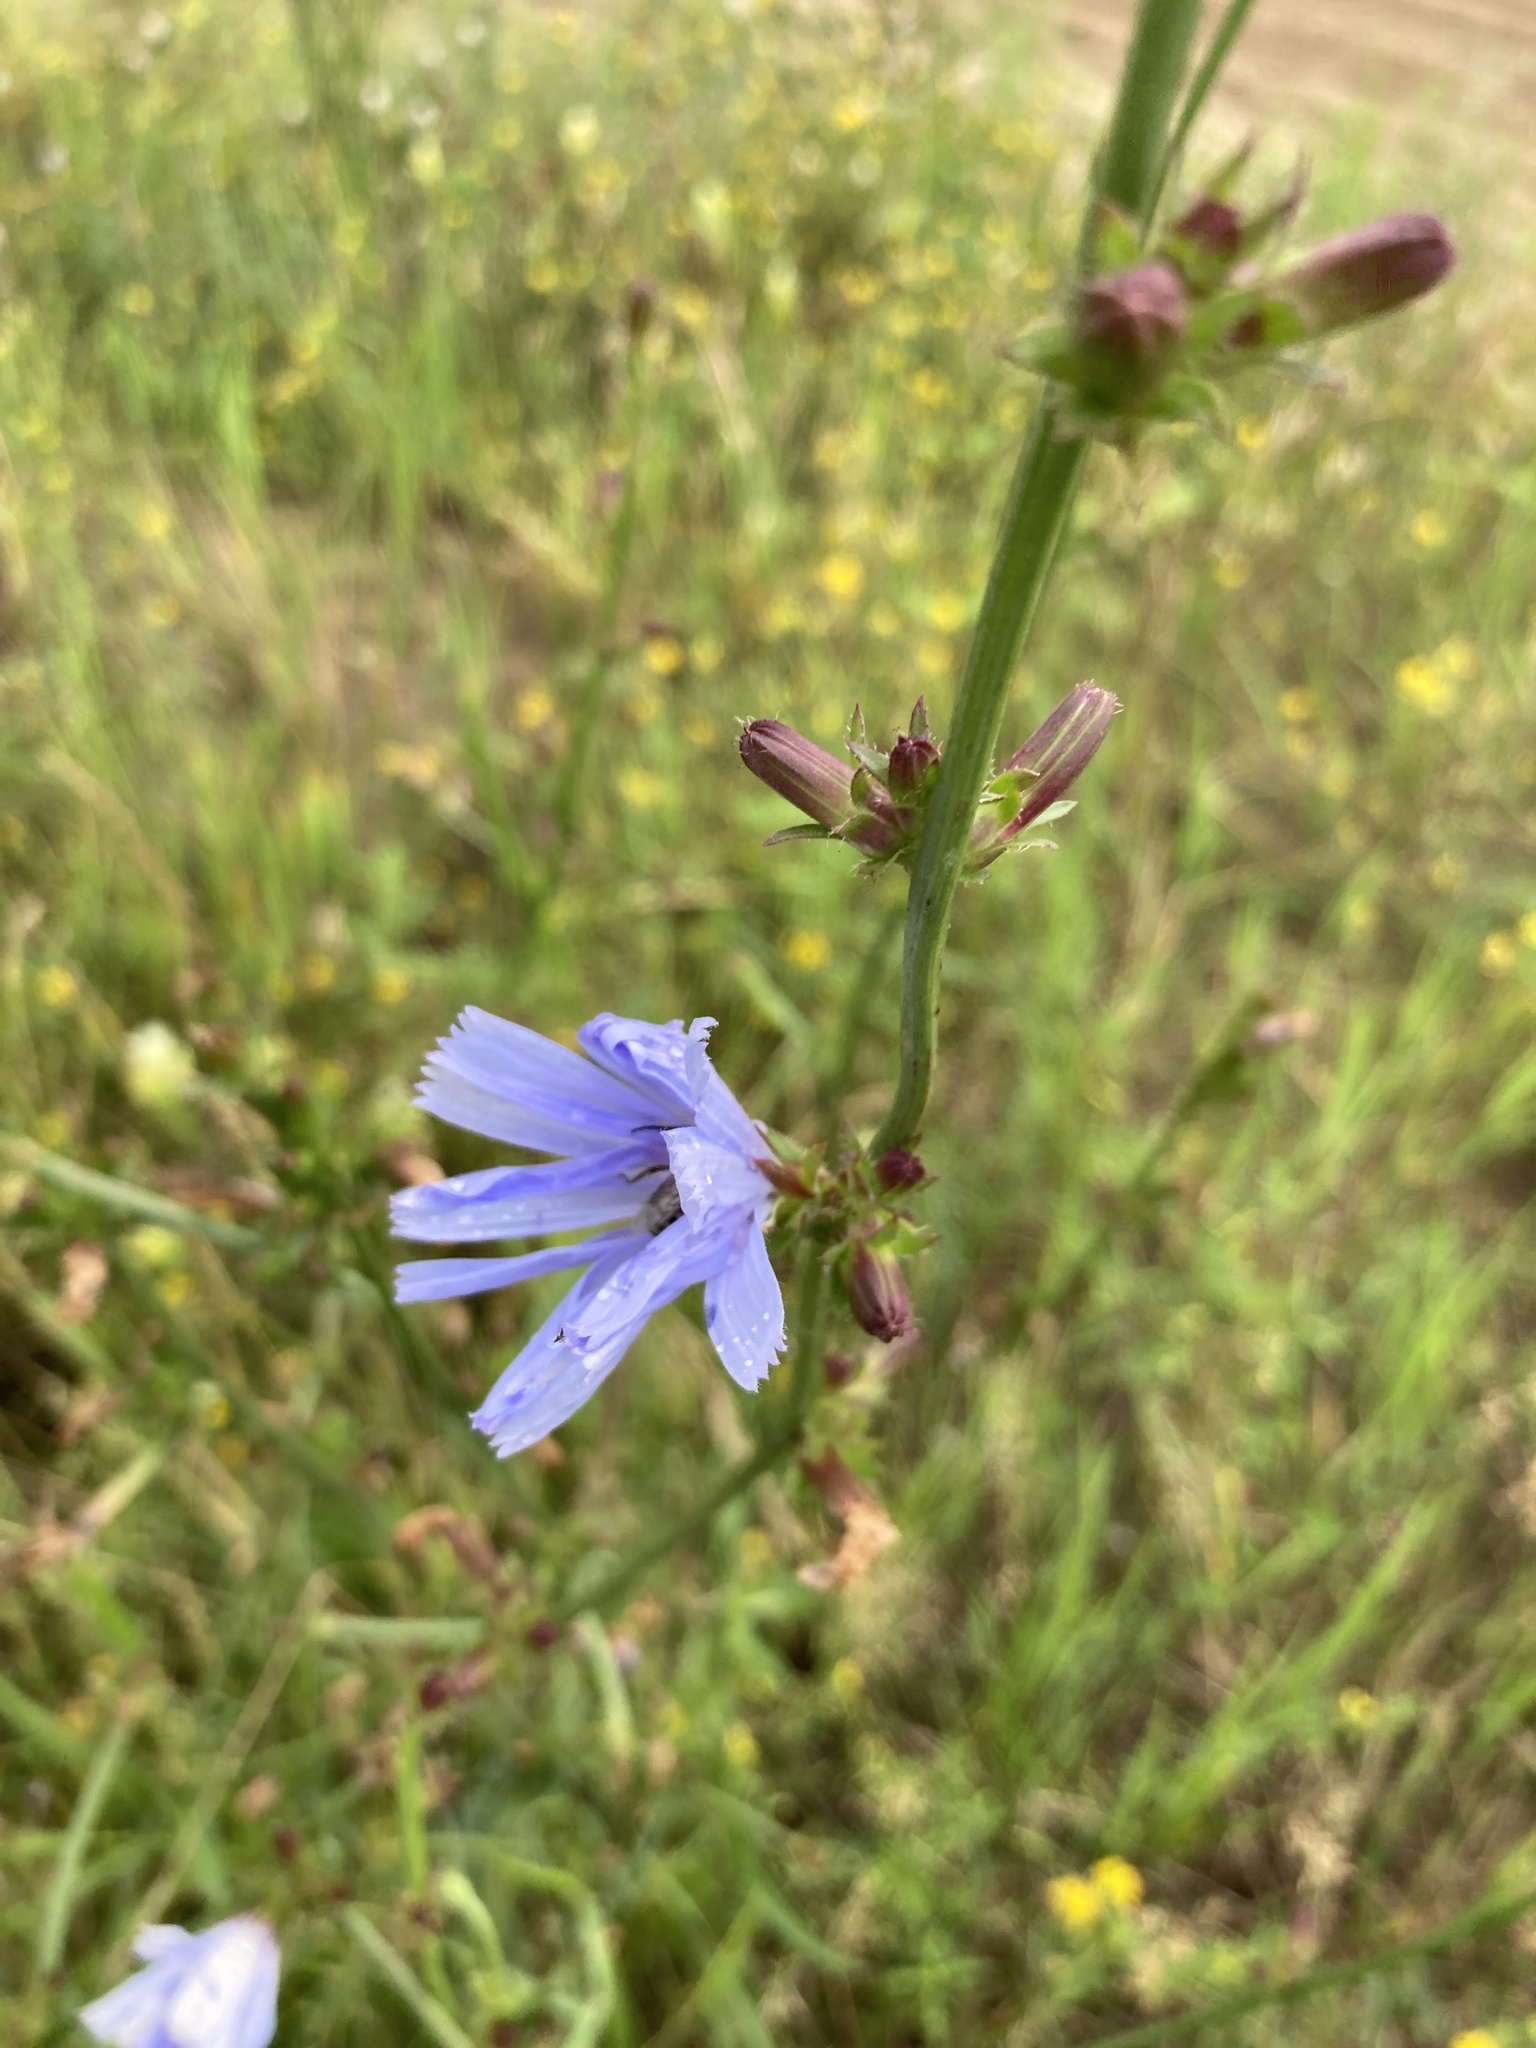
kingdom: Plantae
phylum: Tracheophyta
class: Magnoliopsida
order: Asterales
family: Asteraceae
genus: Cichorium
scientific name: Cichorium intybus
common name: Chicory
